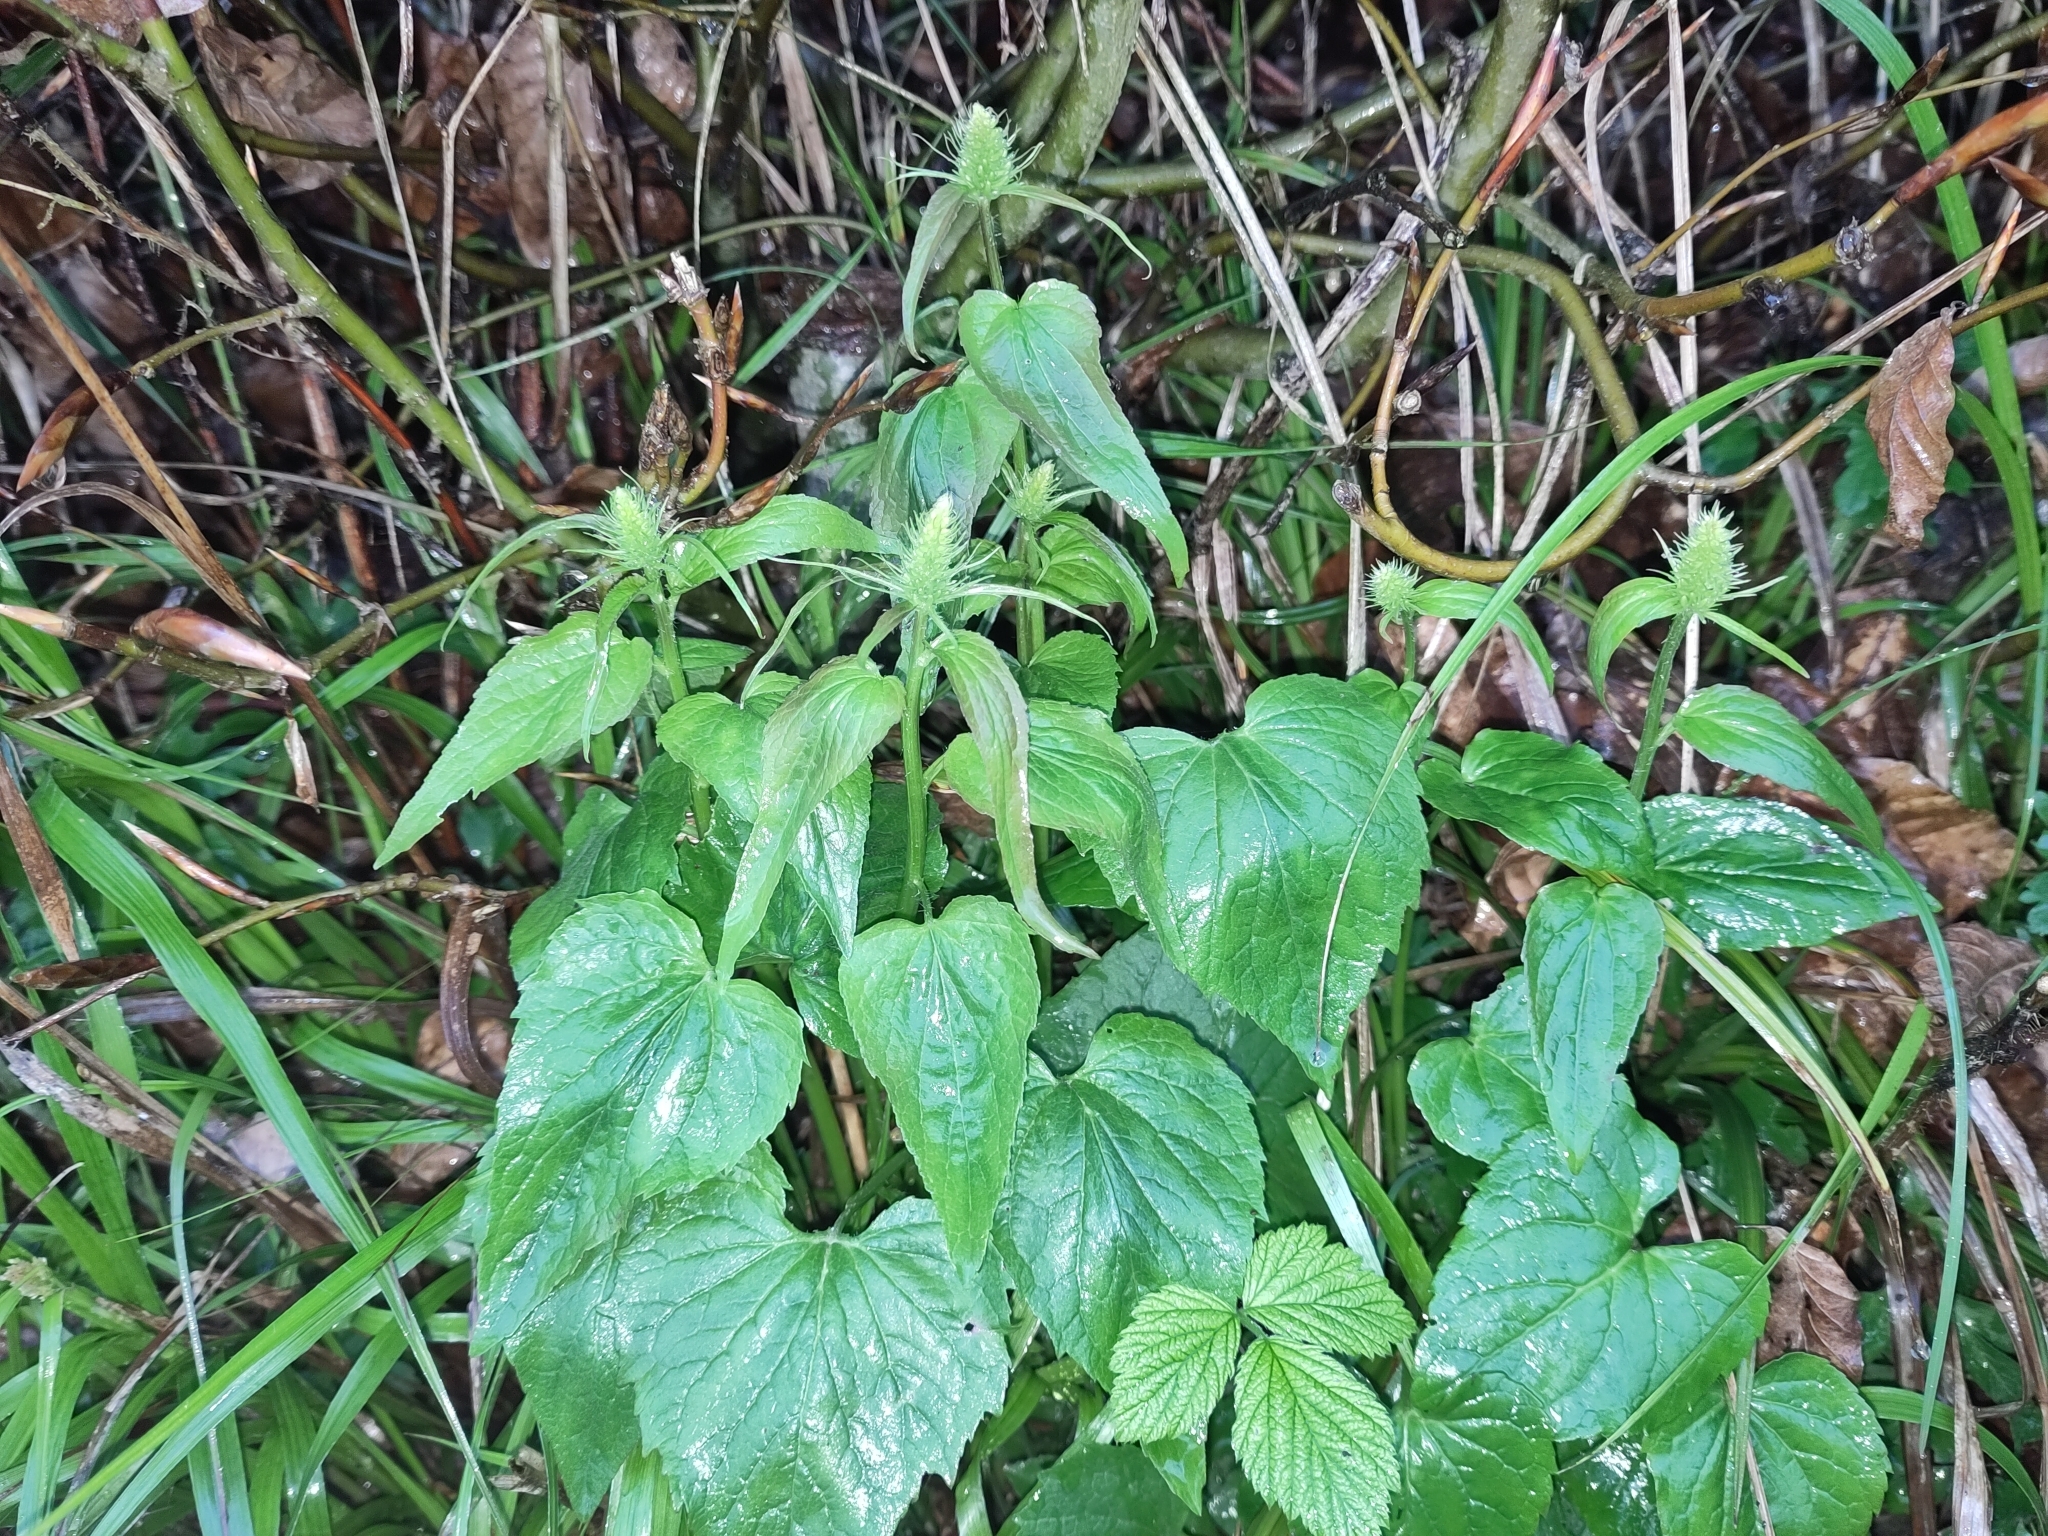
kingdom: Plantae
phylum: Tracheophyta
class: Magnoliopsida
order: Asterales
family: Campanulaceae
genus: Phyteuma
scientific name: Phyteuma spicatum
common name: Spiked rampion
